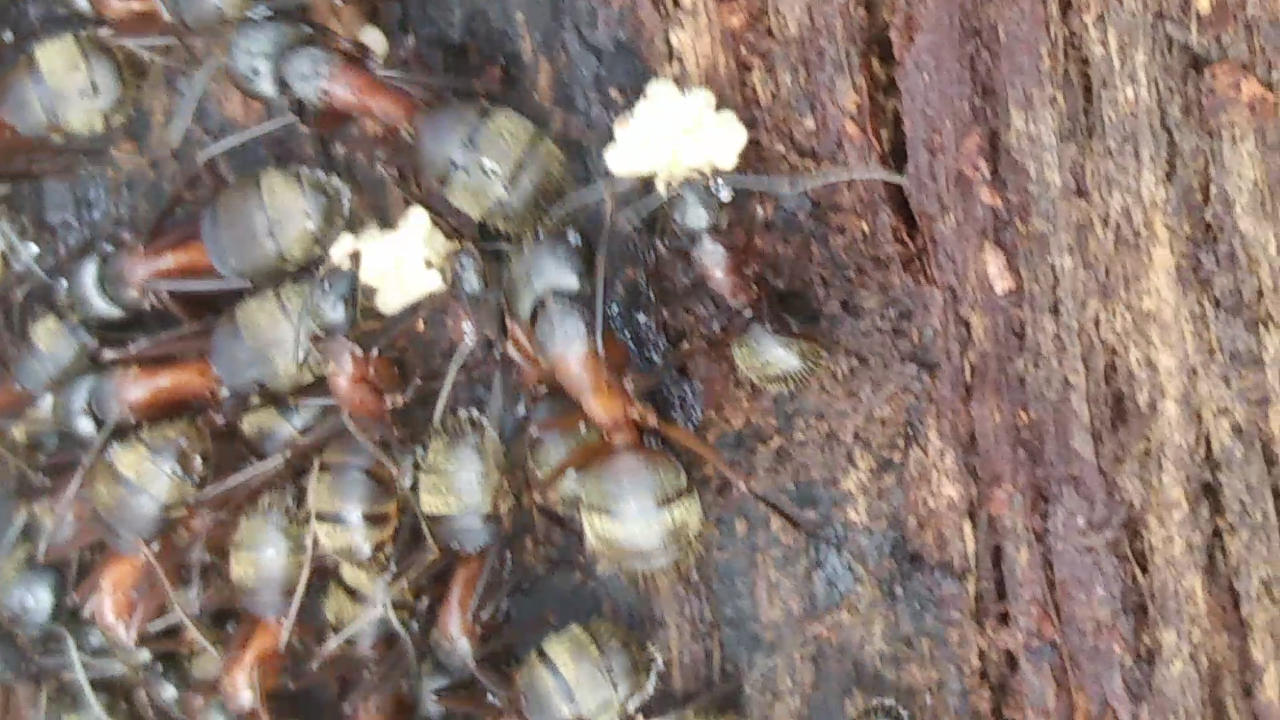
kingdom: Animalia
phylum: Arthropoda
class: Insecta
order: Hymenoptera
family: Formicidae
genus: Camponotus
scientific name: Camponotus chromaiodes
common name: Red carpenter ant
